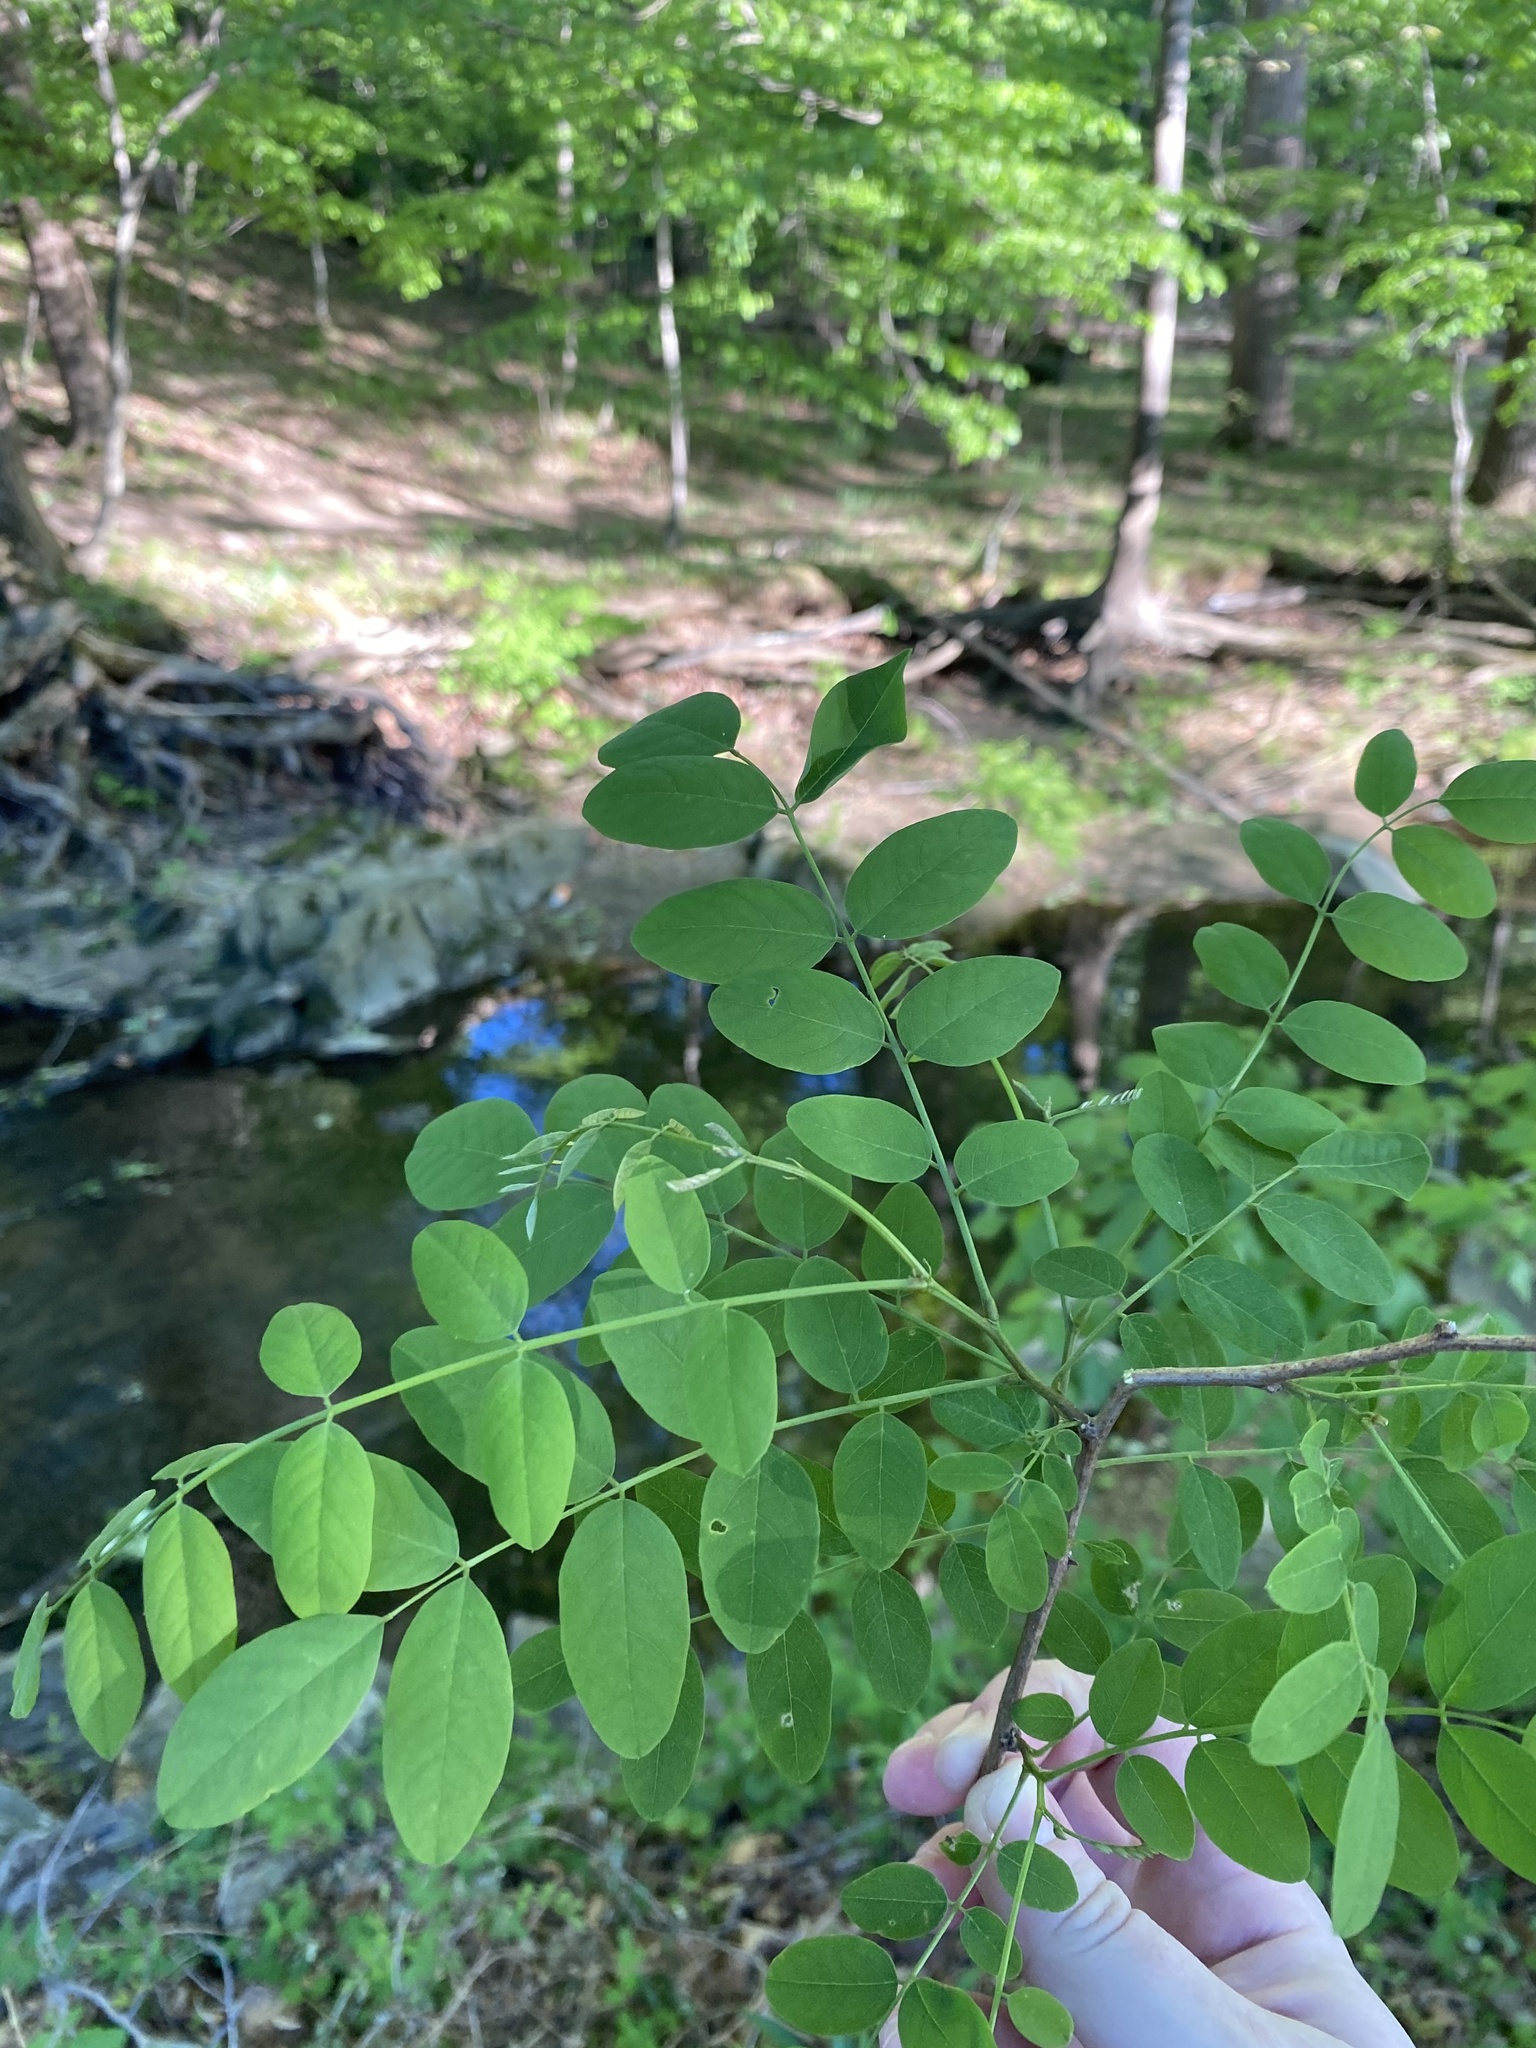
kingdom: Plantae
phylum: Tracheophyta
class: Magnoliopsida
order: Fabales
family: Fabaceae
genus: Robinia
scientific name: Robinia pseudoacacia
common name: Black locust
